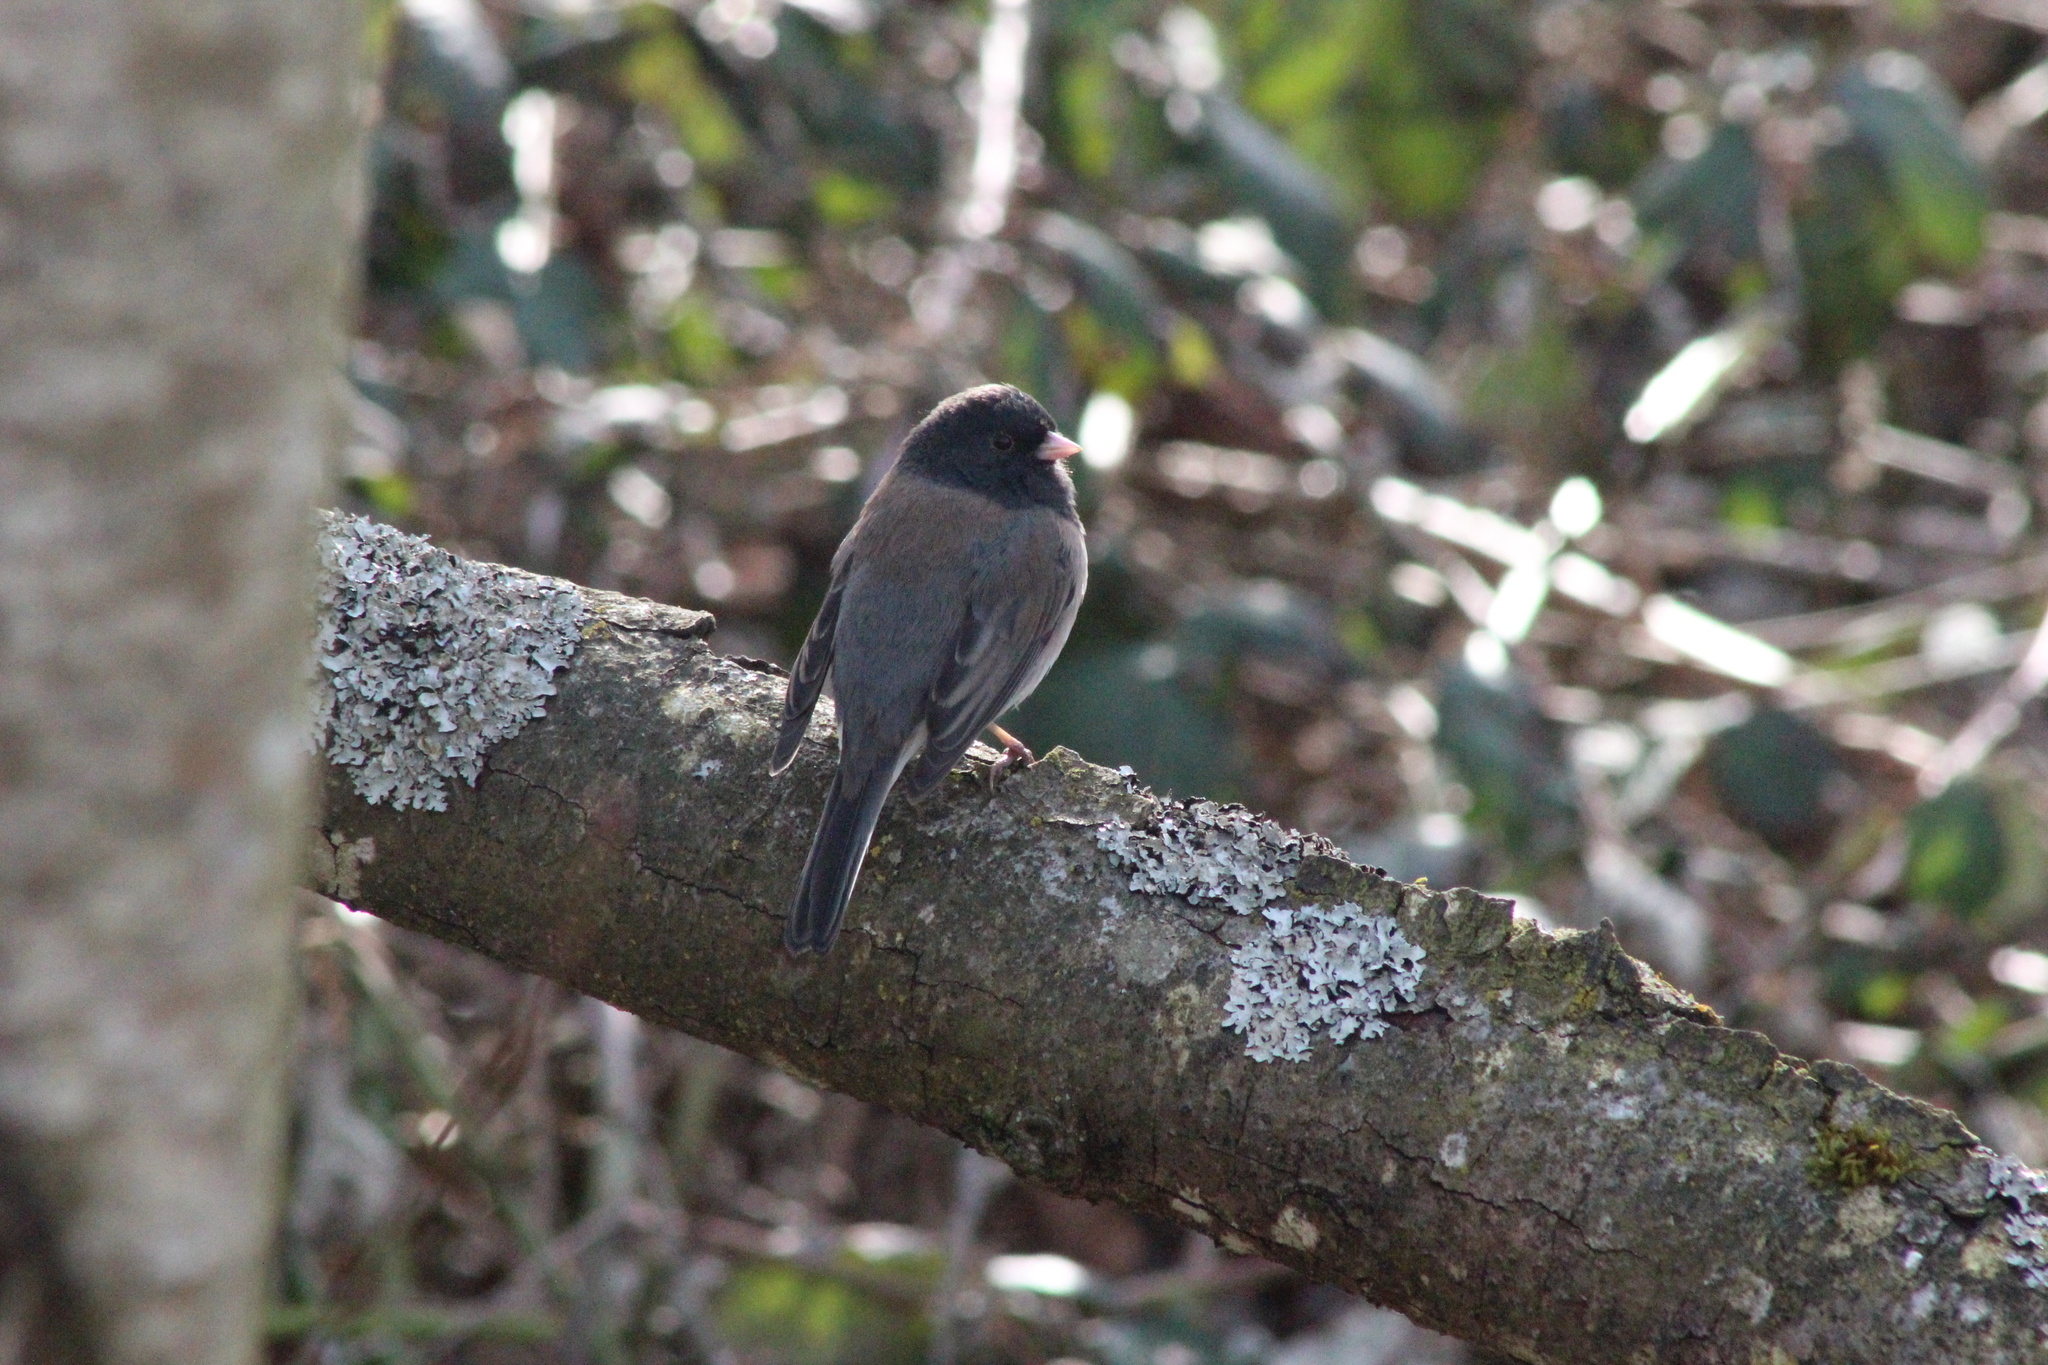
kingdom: Animalia
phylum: Chordata
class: Aves
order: Passeriformes
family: Passerellidae
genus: Junco
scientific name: Junco hyemalis
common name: Dark-eyed junco
